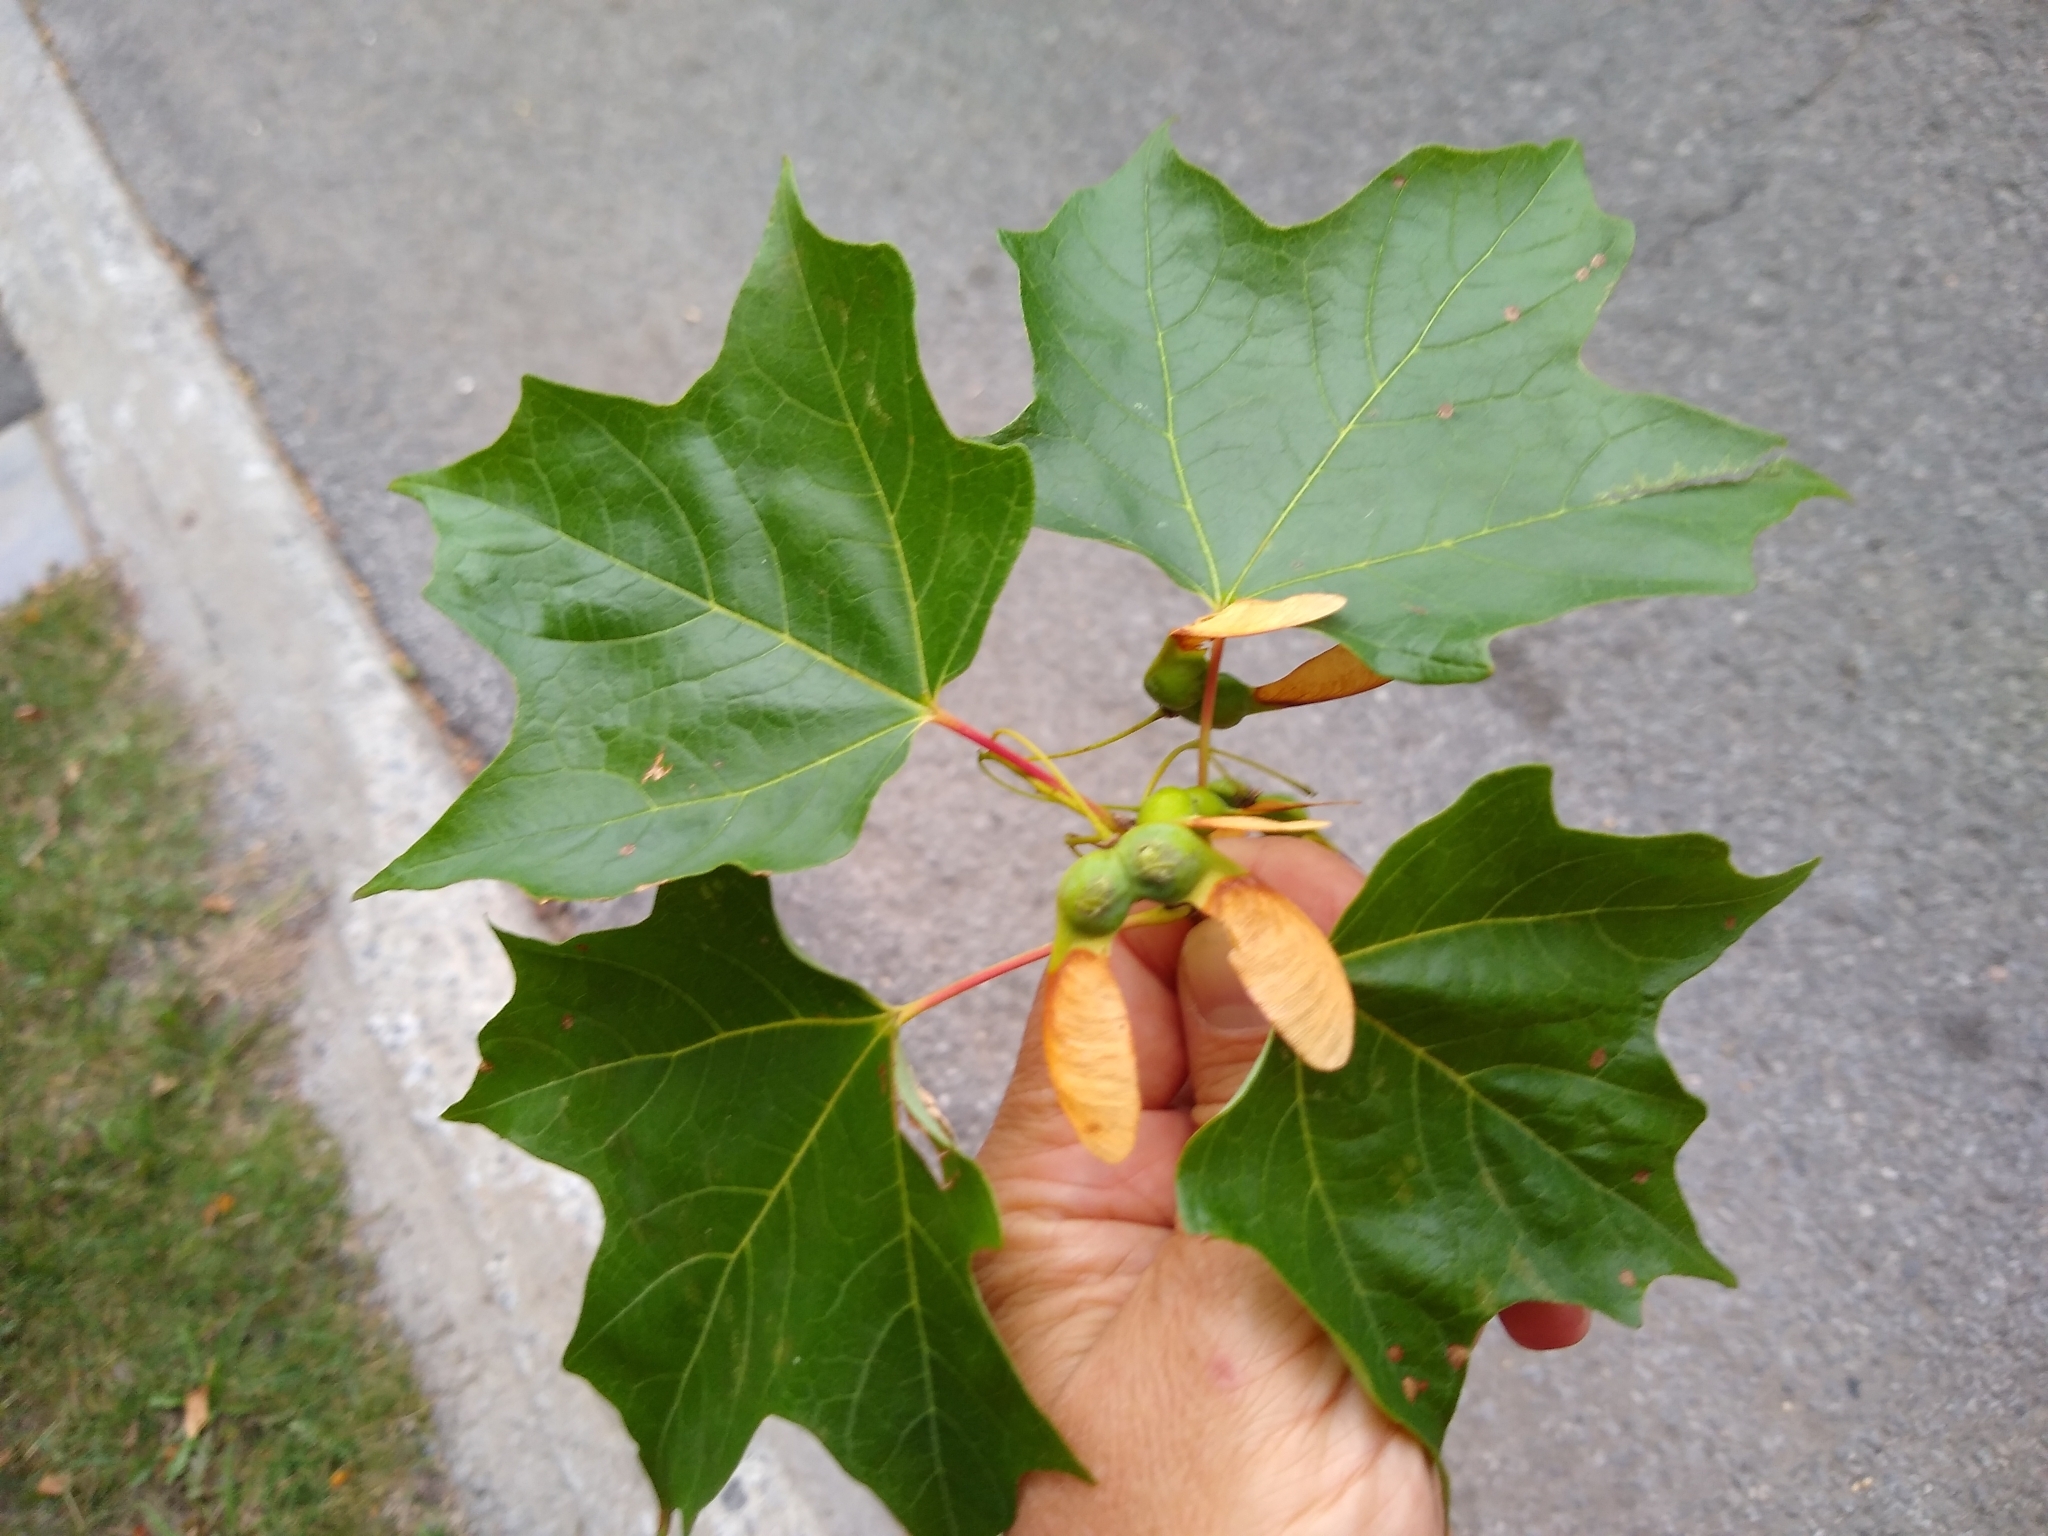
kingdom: Plantae
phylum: Tracheophyta
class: Magnoliopsida
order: Sapindales
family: Sapindaceae
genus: Acer
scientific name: Acer saccharum
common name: Sugar maple
